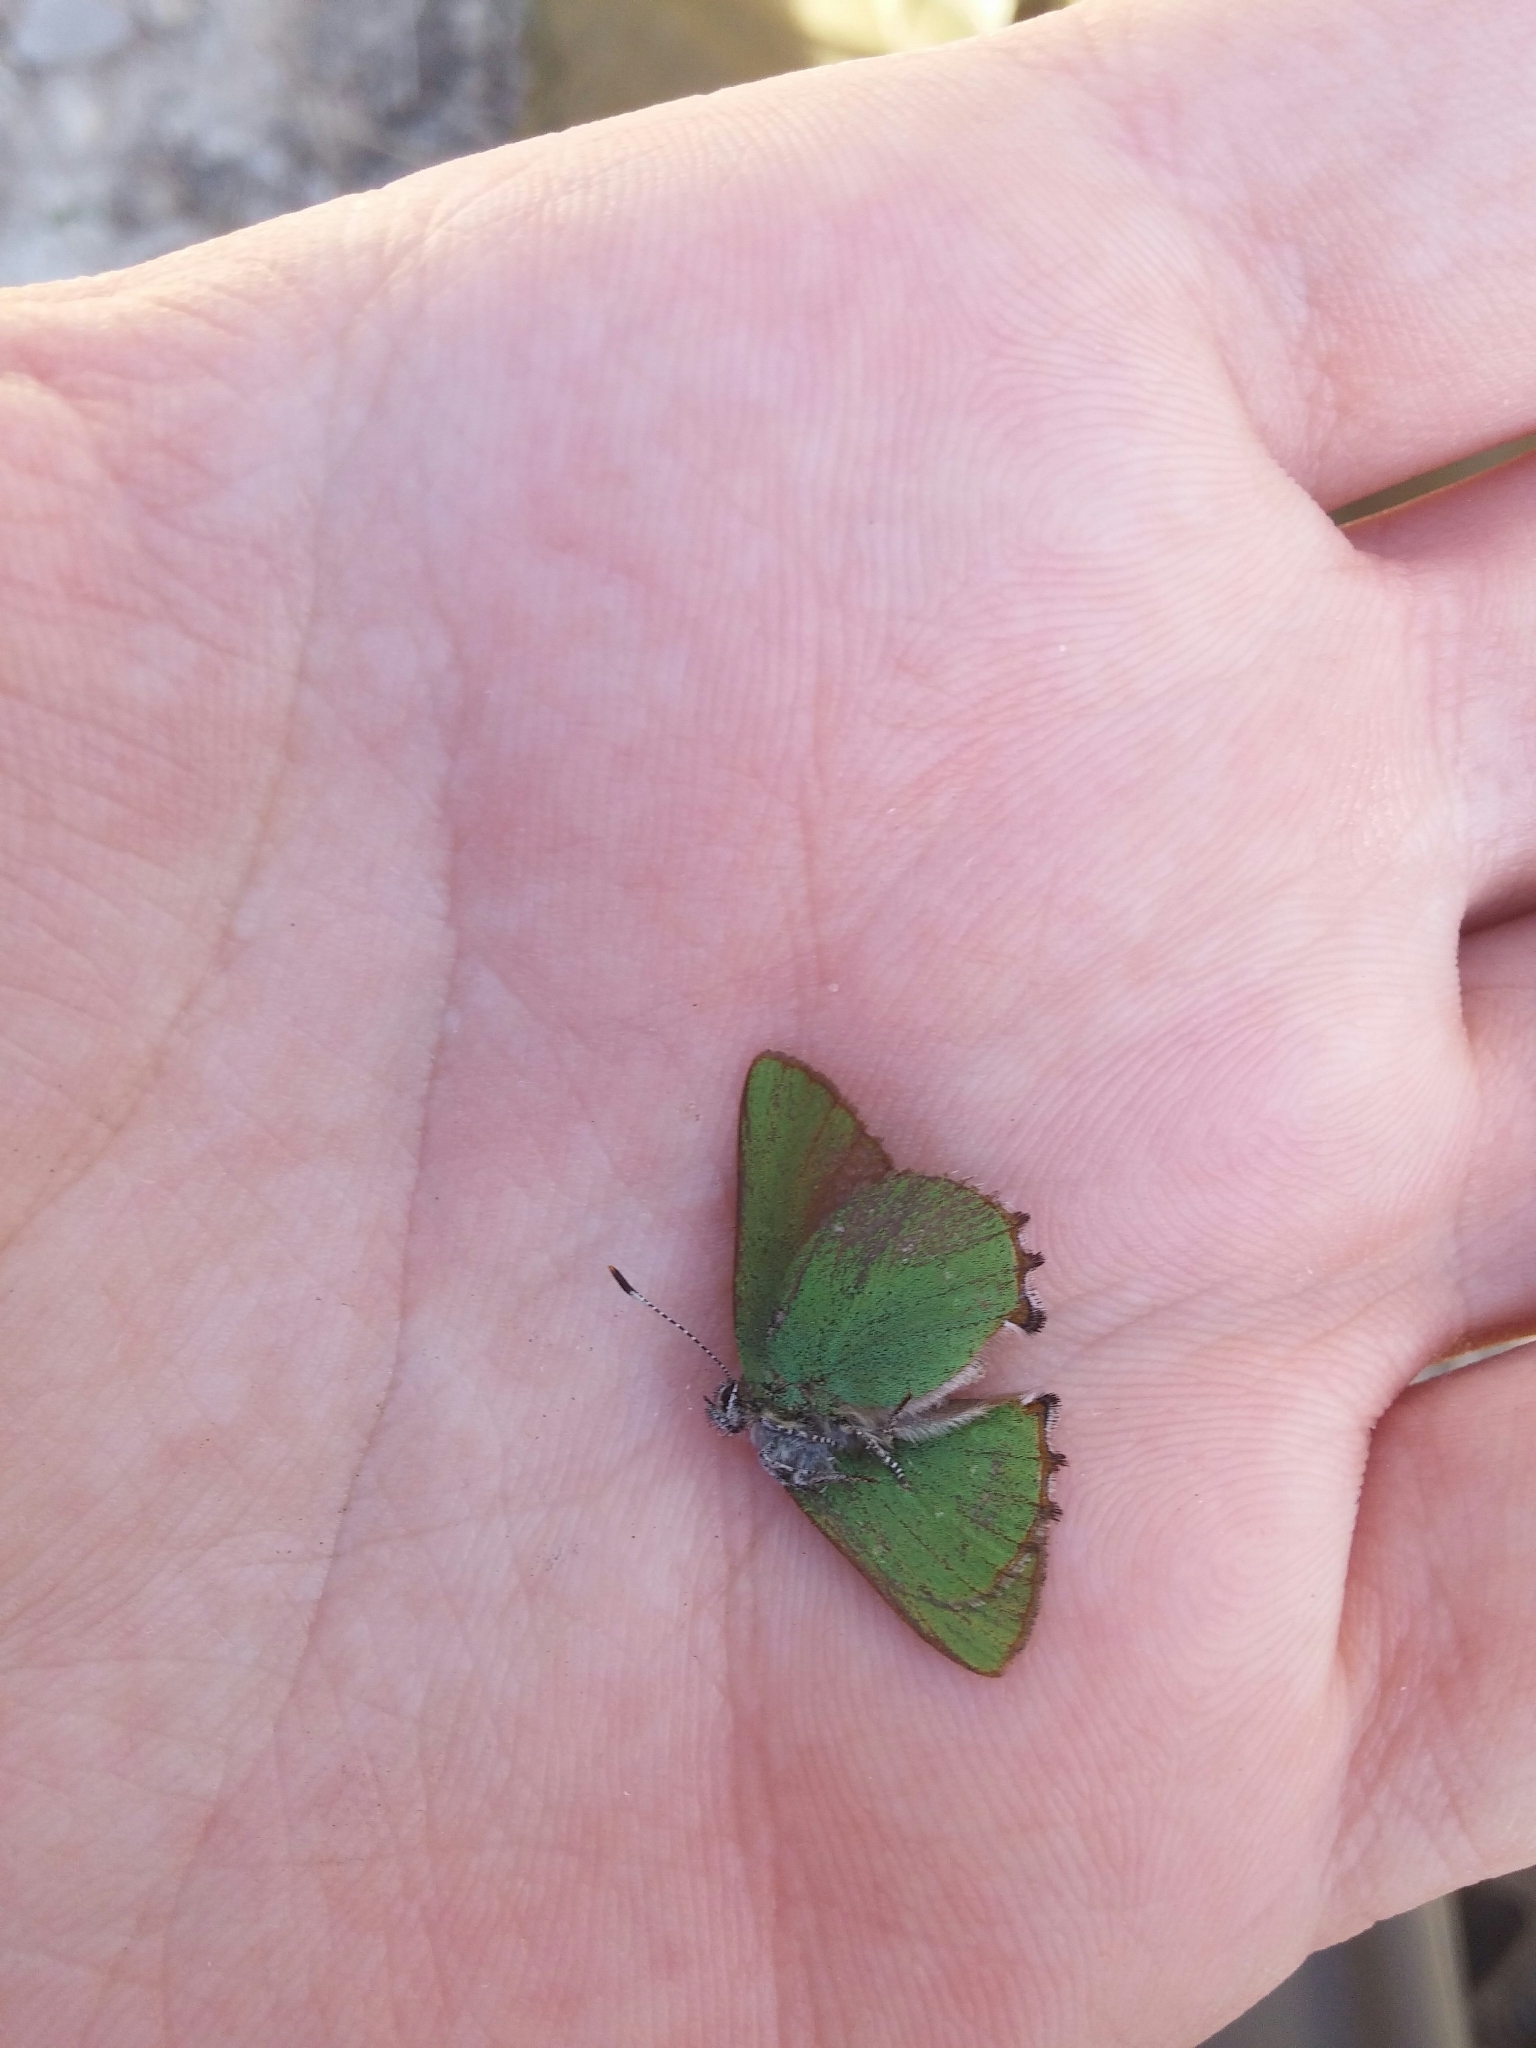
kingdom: Animalia
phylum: Arthropoda
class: Insecta
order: Lepidoptera
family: Lycaenidae
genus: Callophrys
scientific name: Callophrys rubi
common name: Green hairstreak
